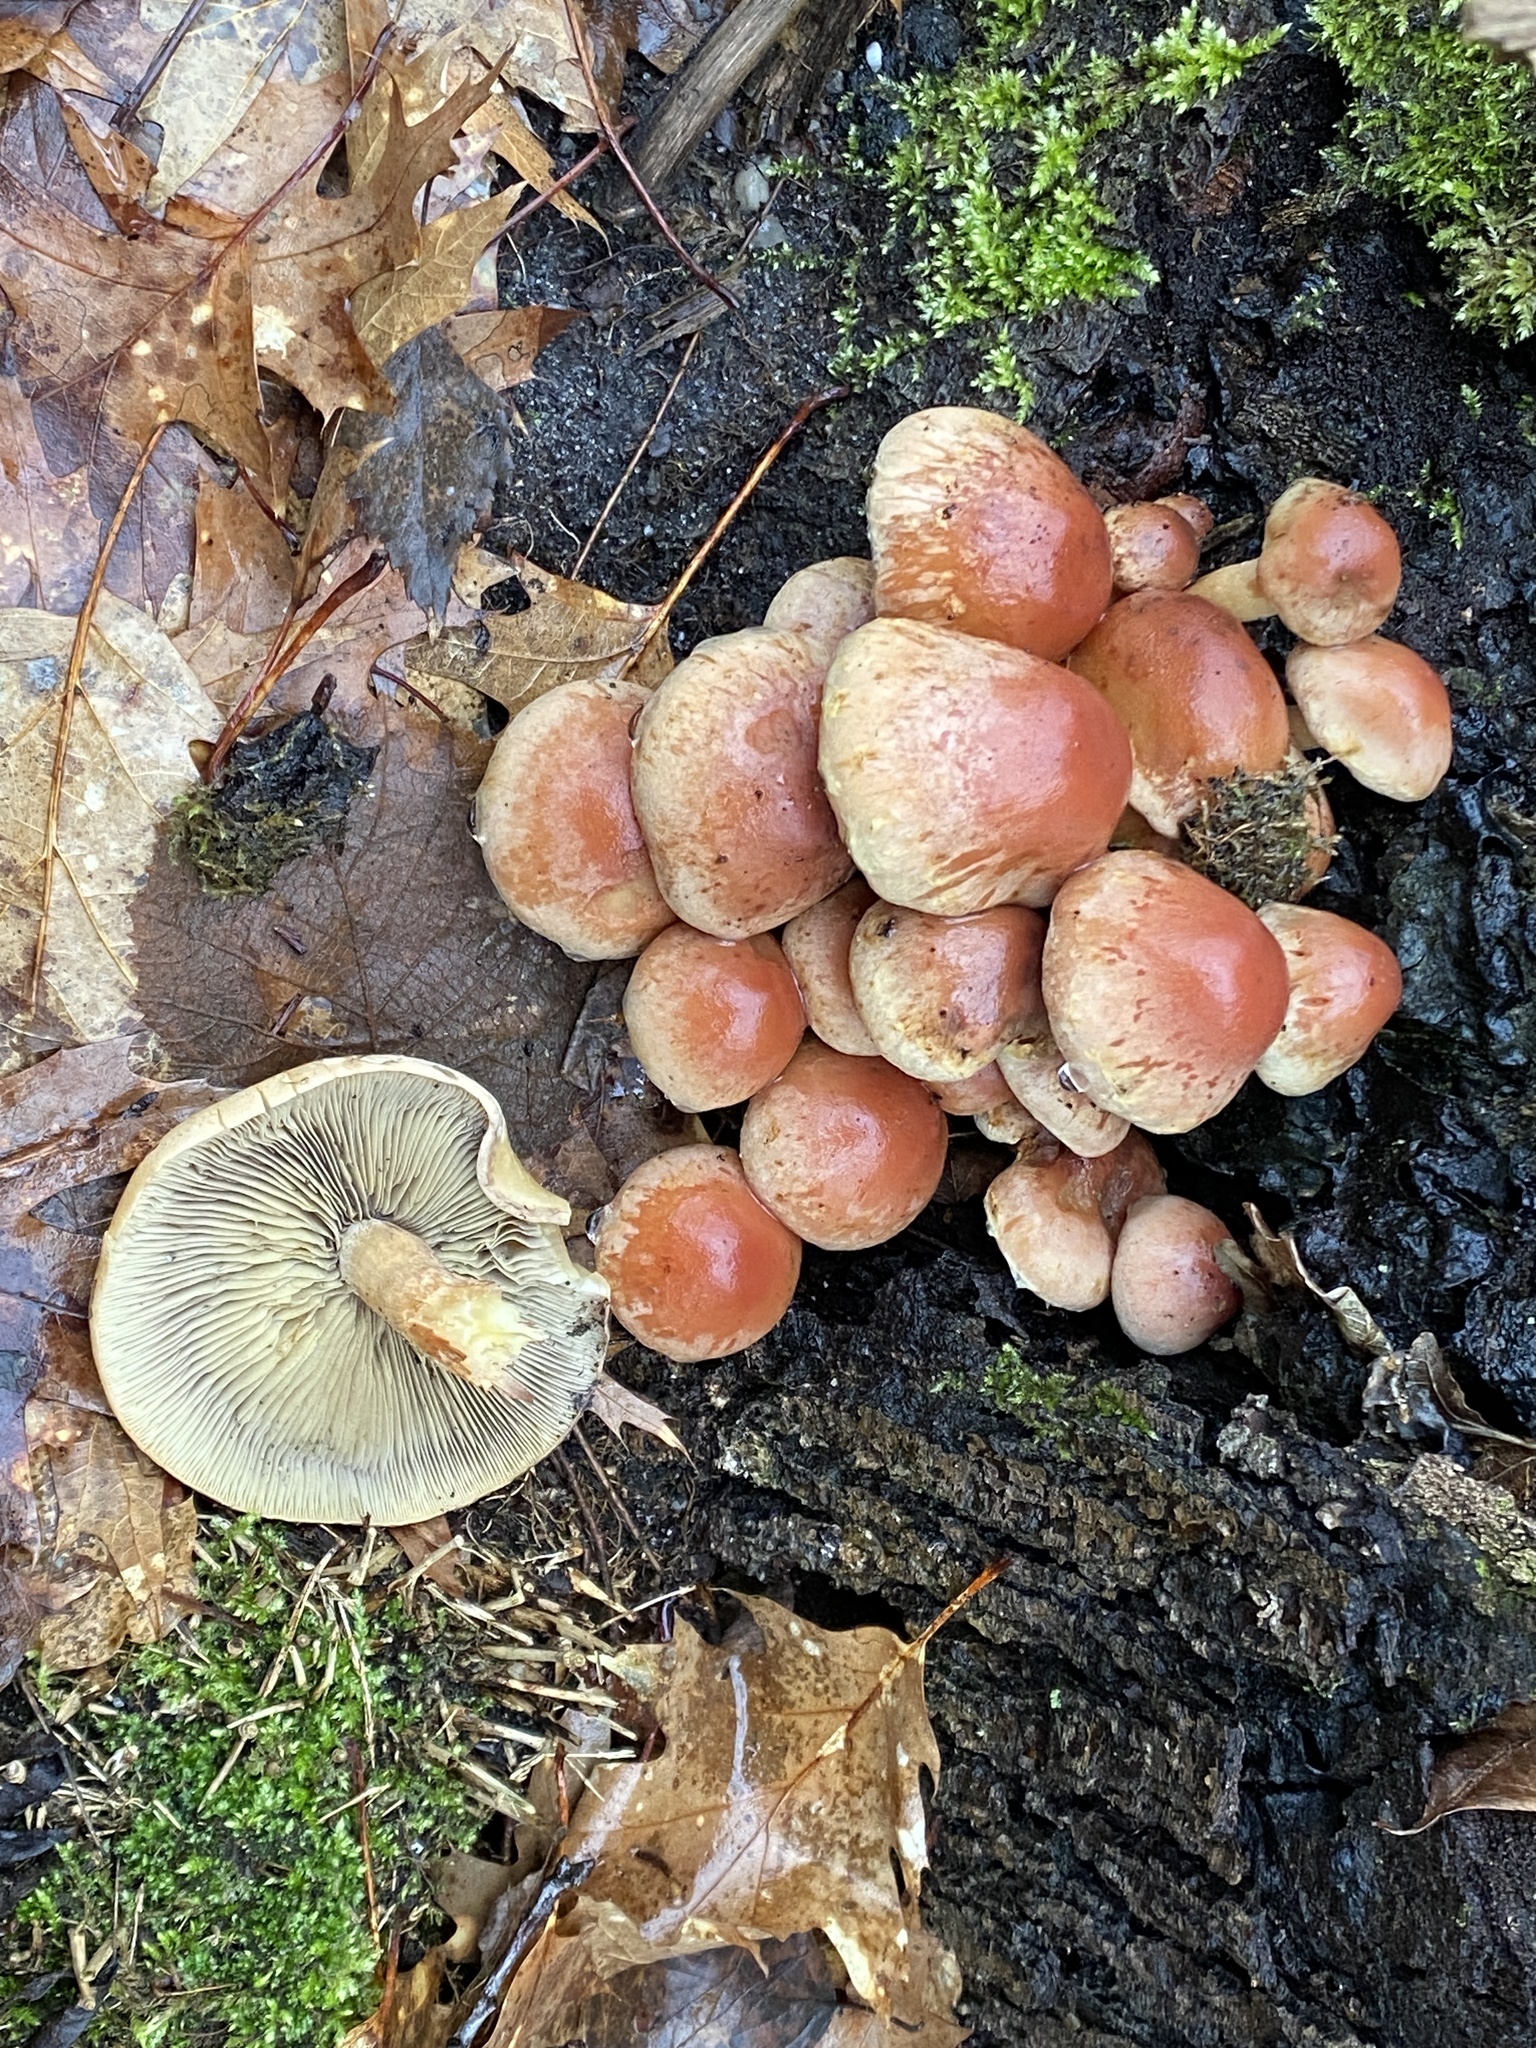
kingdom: Fungi
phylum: Basidiomycota
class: Agaricomycetes
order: Agaricales
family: Strophariaceae
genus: Hypholoma
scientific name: Hypholoma lateritium
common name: Brick caps
